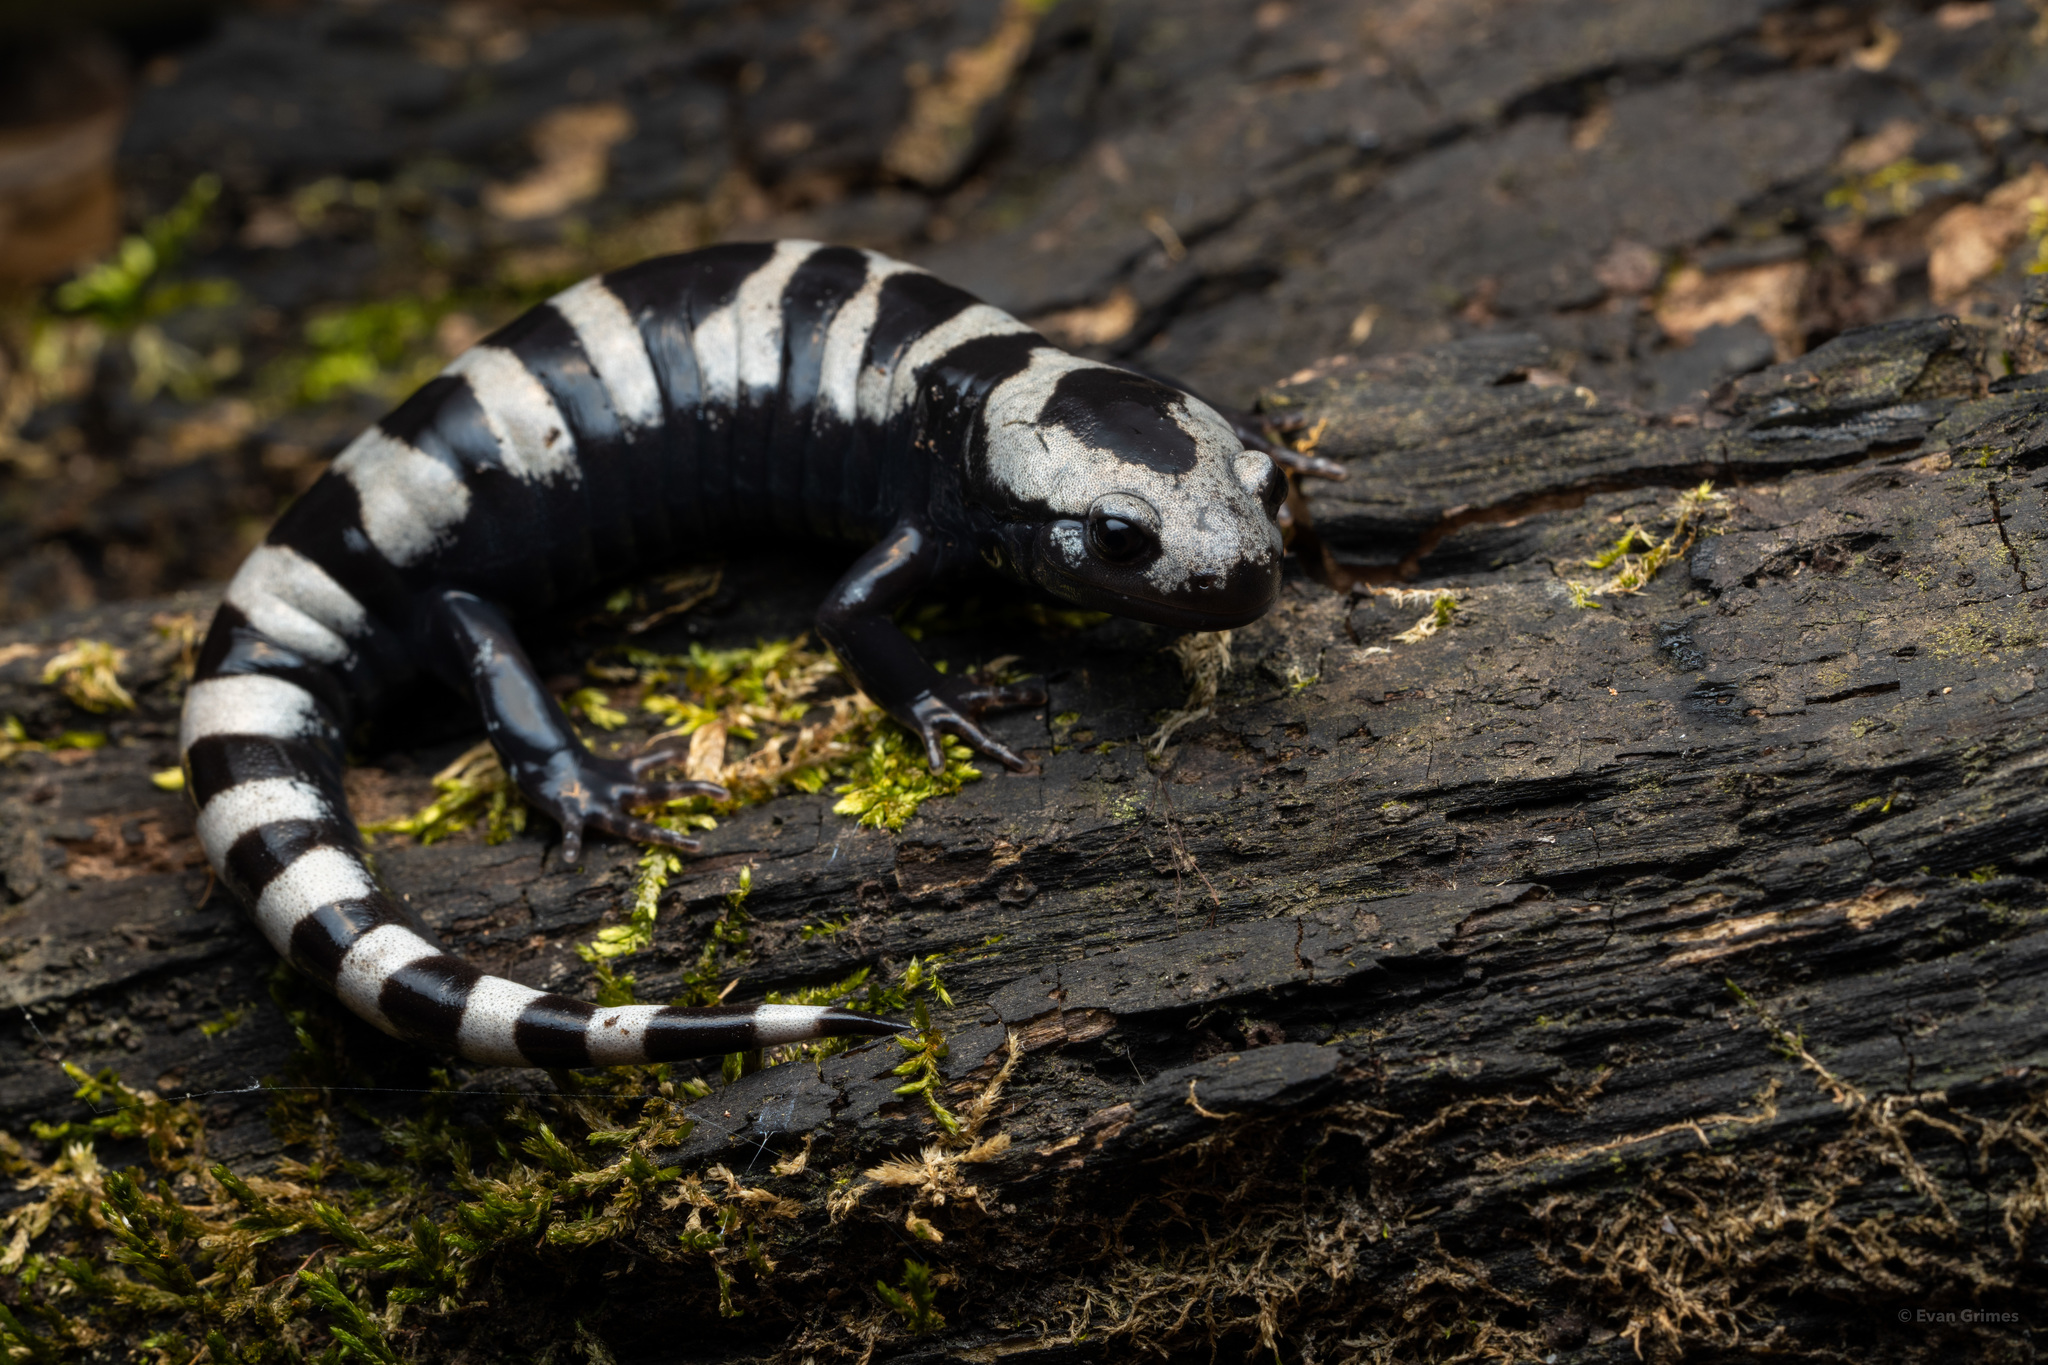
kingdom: Animalia
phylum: Chordata
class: Amphibia
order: Caudata
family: Ambystomatidae
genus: Ambystoma
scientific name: Ambystoma opacum
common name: Marbled salamander
